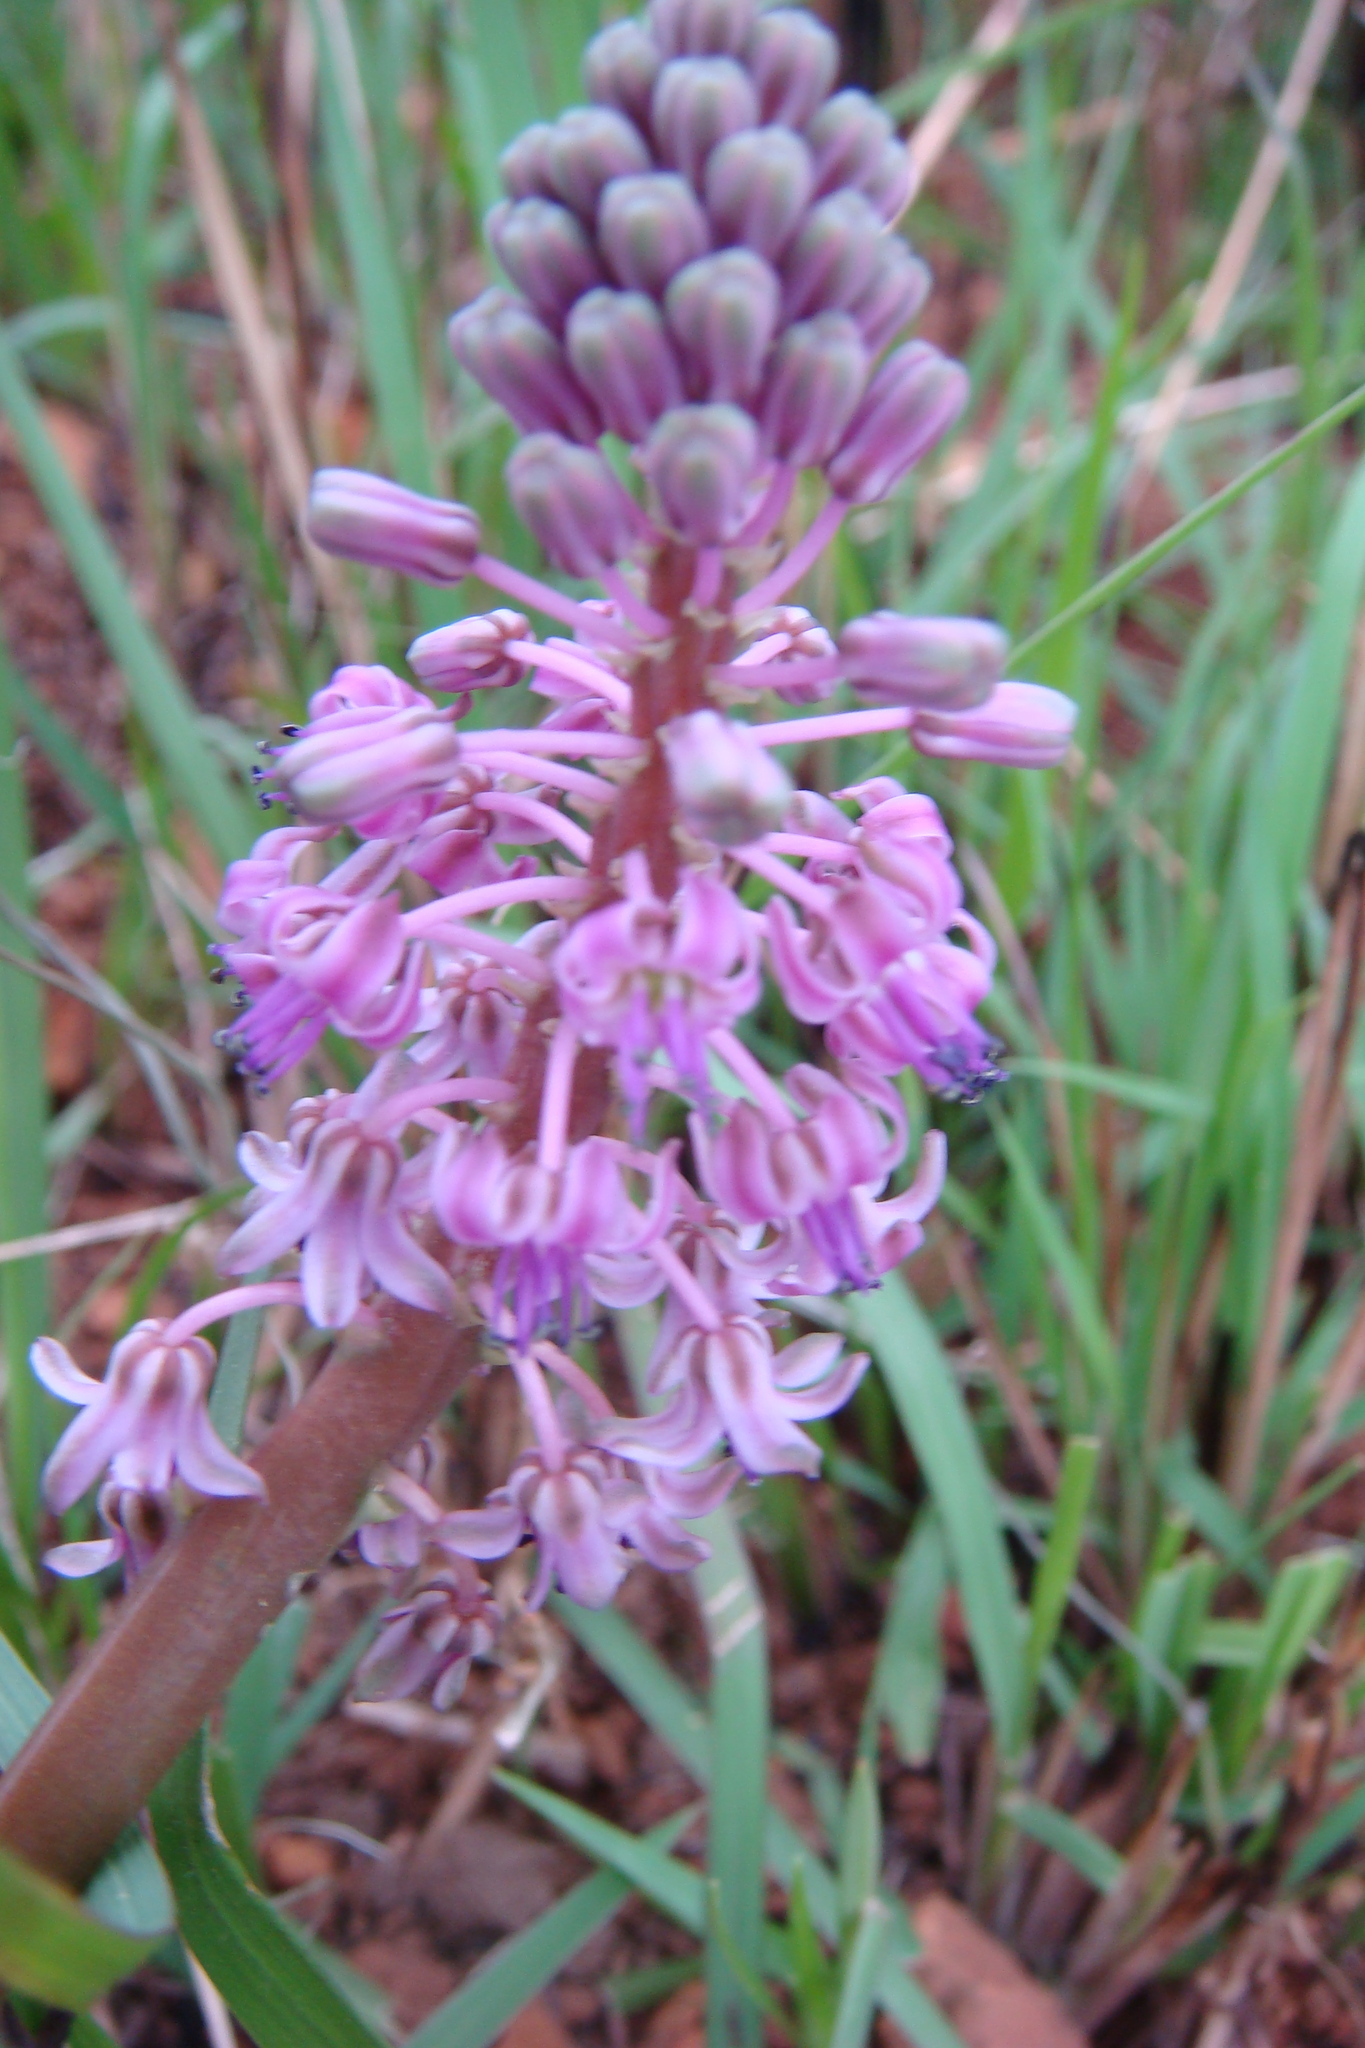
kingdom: Plantae
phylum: Tracheophyta
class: Liliopsida
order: Asparagales
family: Asparagaceae
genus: Ledebouria
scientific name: Ledebouria cooperi
